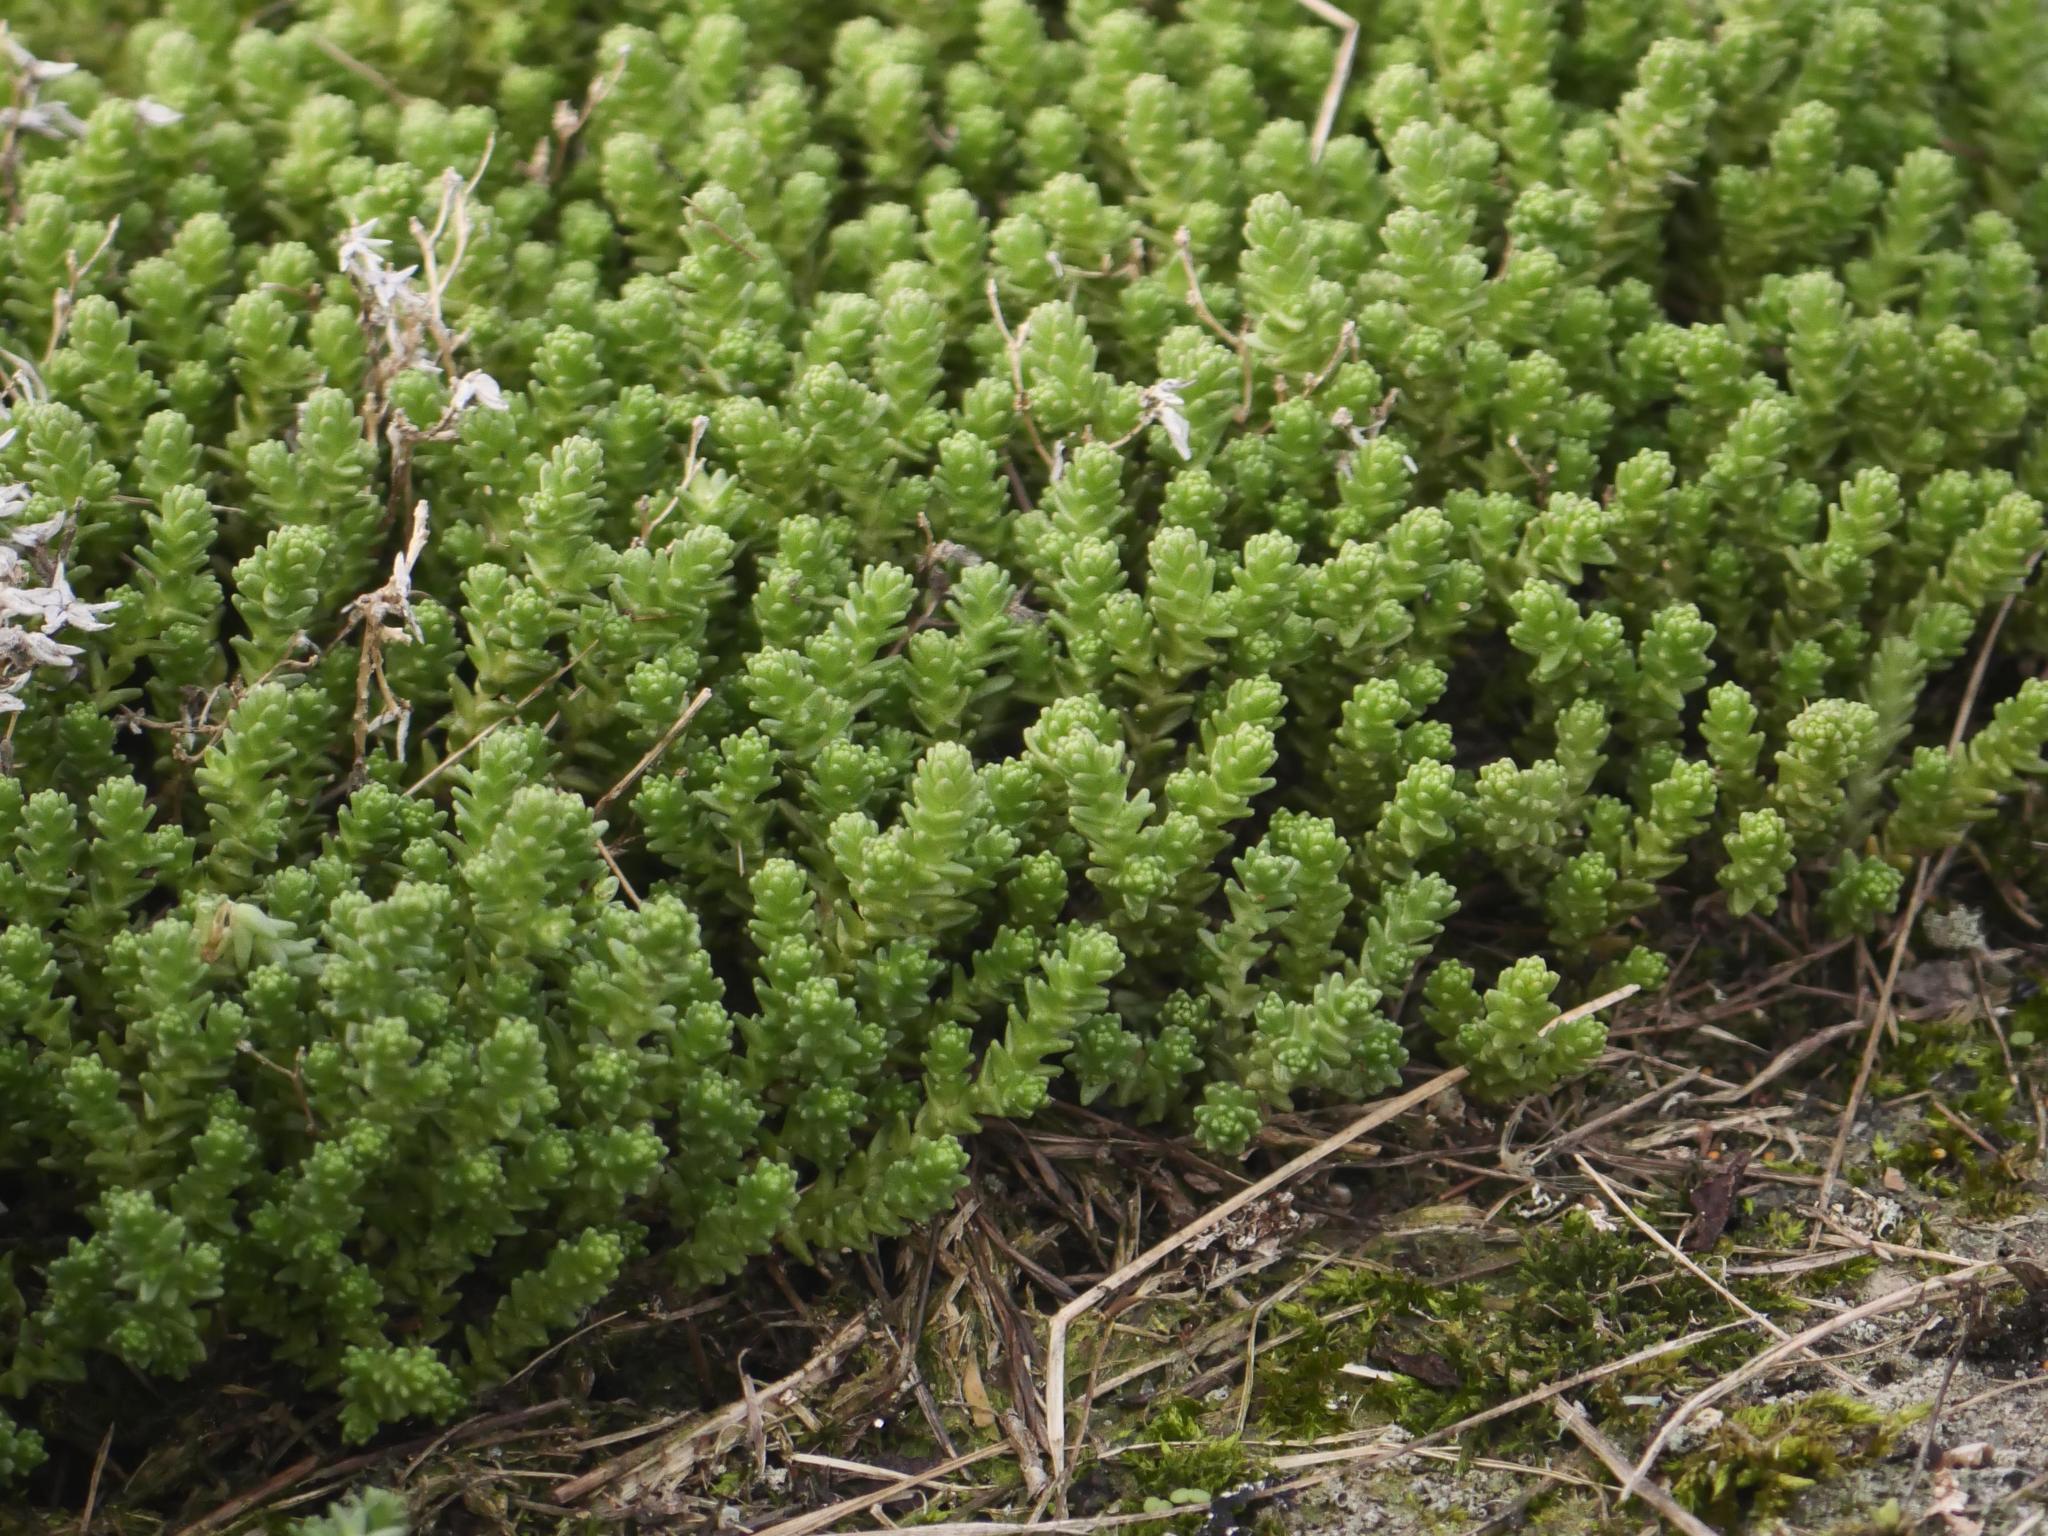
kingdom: Plantae
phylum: Tracheophyta
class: Magnoliopsida
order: Saxifragales
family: Crassulaceae
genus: Sedum
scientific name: Sedum acre
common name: Biting stonecrop
